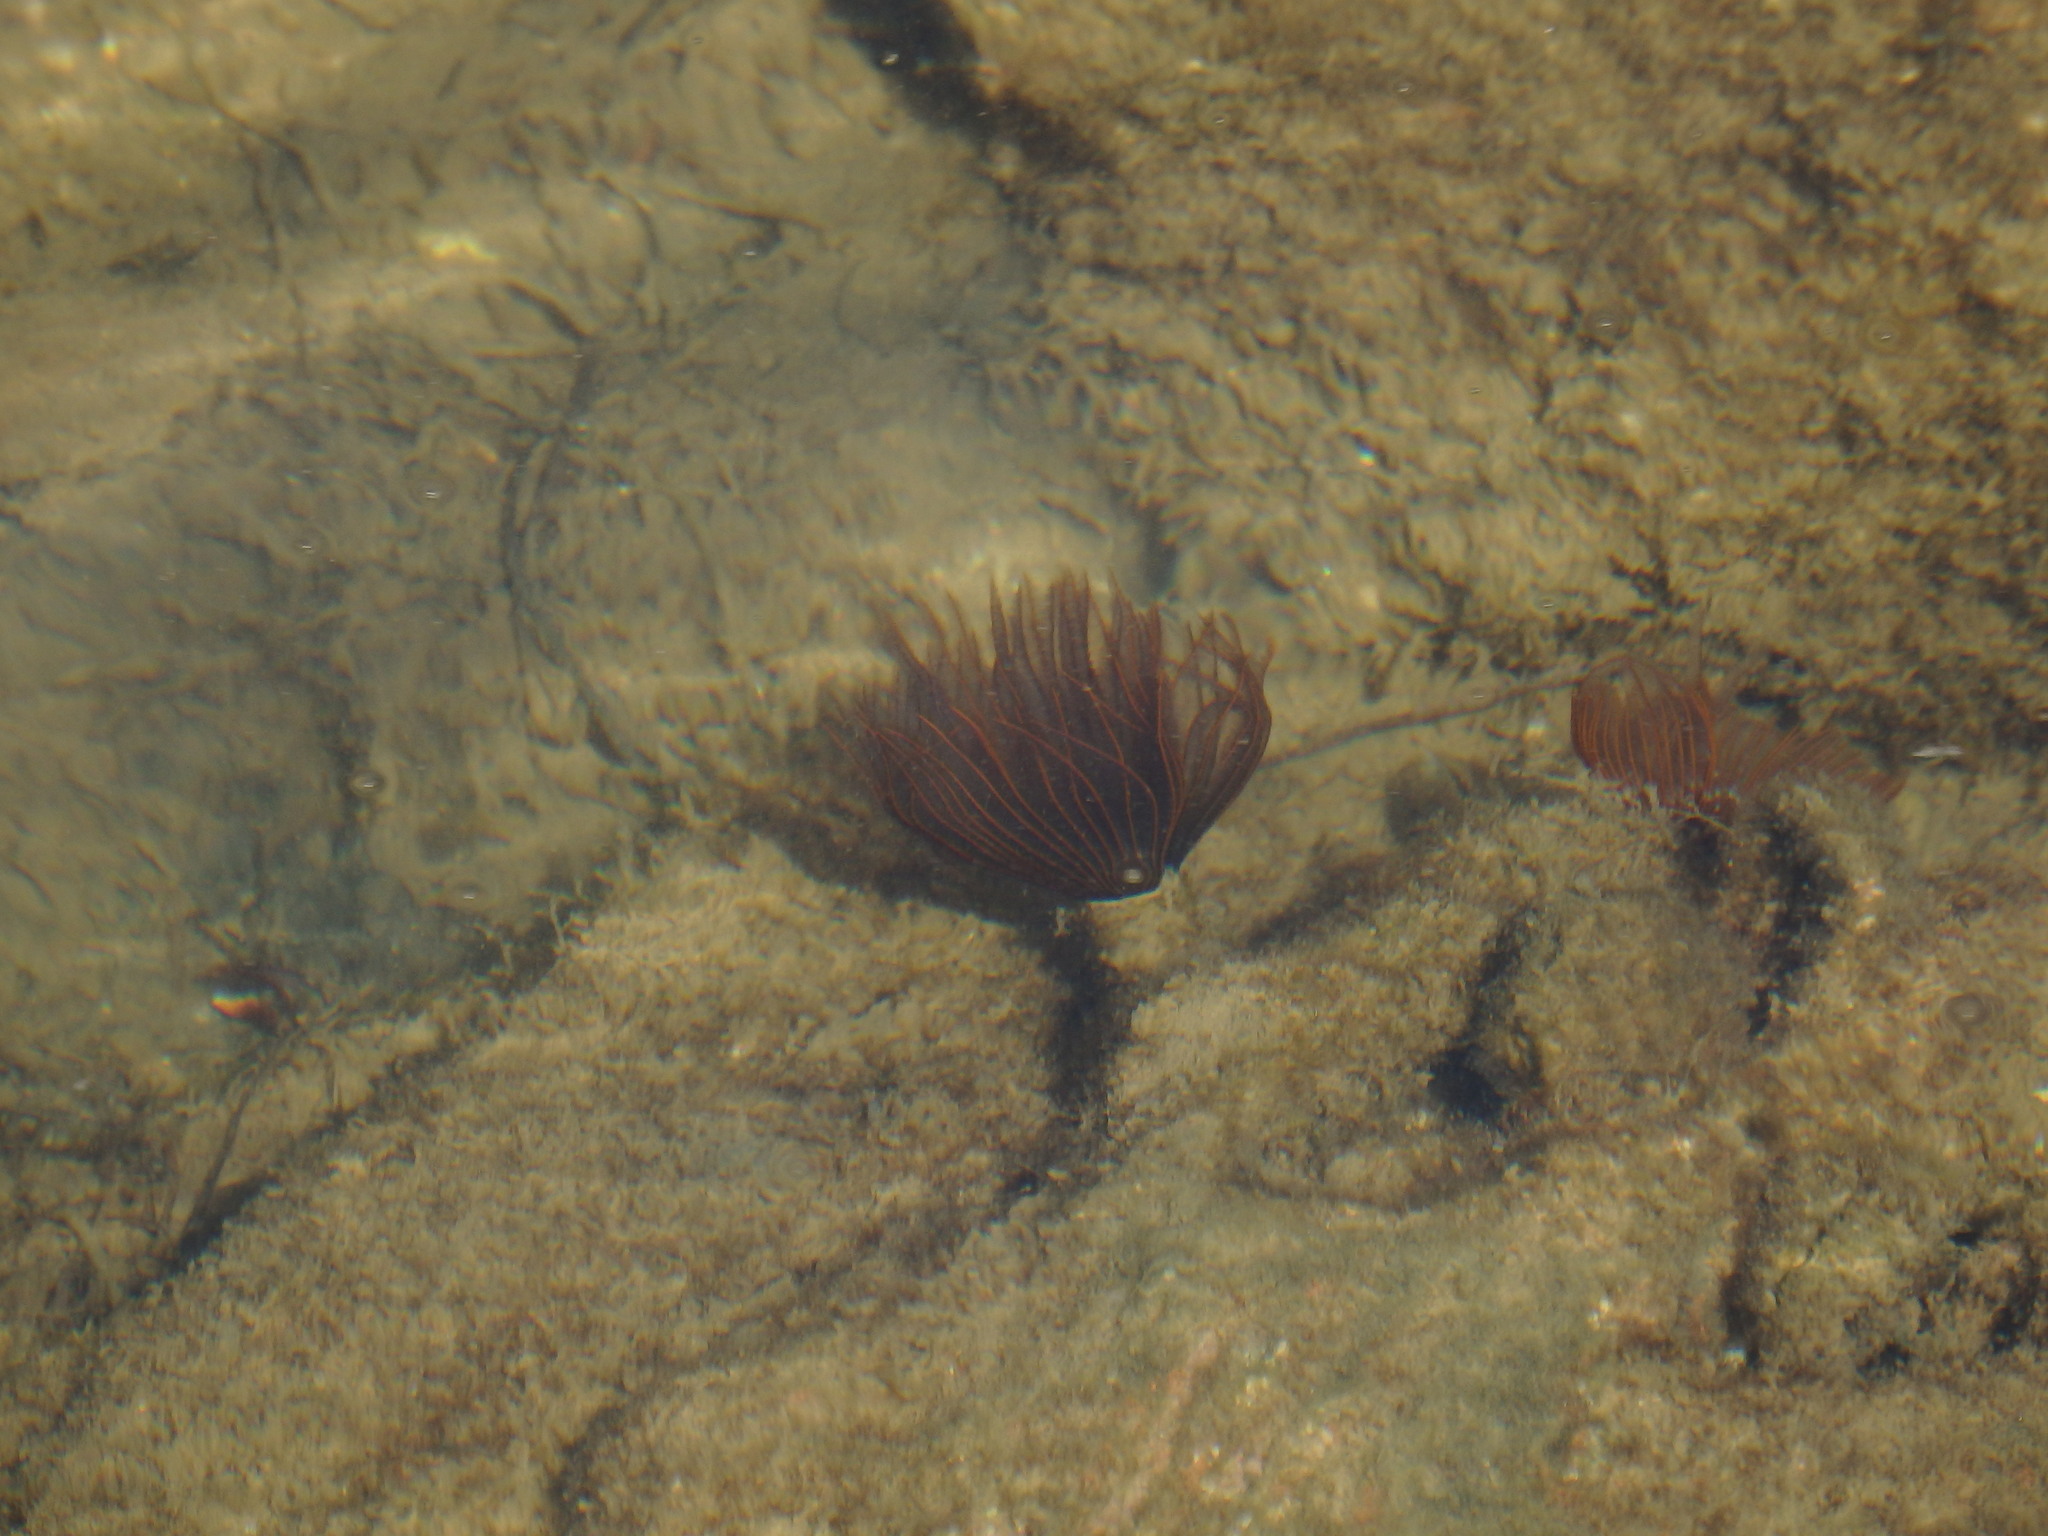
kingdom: Animalia
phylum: Annelida
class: Polychaeta
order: Sabellida
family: Sabellidae
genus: Branchiomma
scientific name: Branchiomma luctuosum
